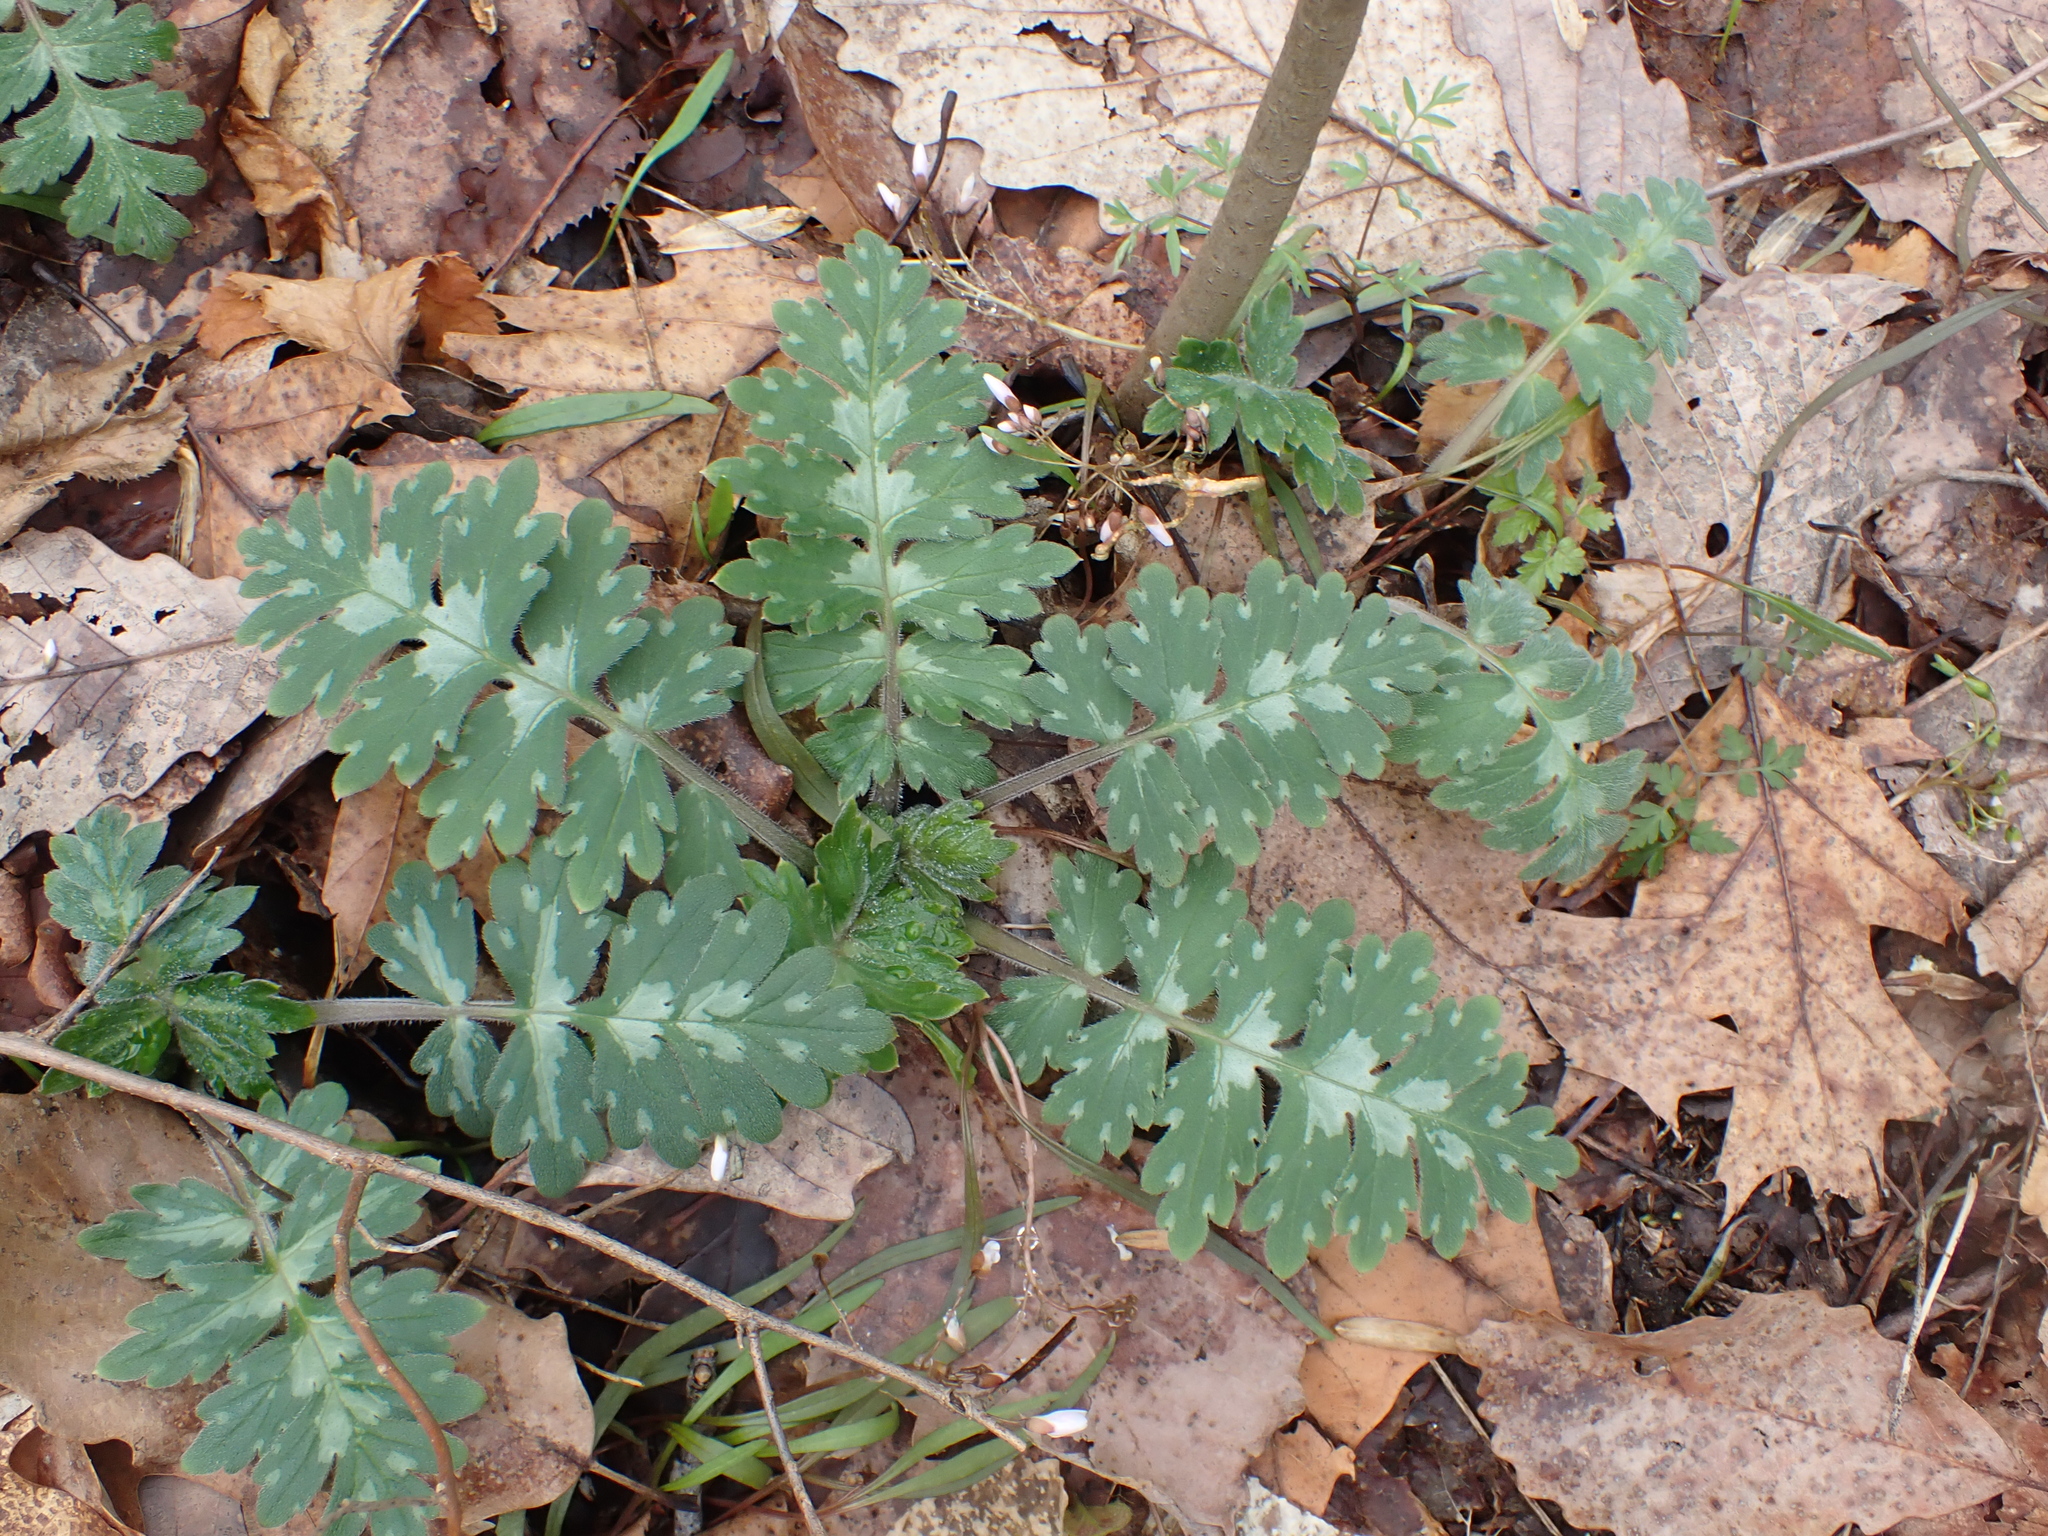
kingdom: Plantae
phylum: Tracheophyta
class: Magnoliopsida
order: Boraginales
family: Hydrophyllaceae
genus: Hydrophyllum
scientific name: Hydrophyllum macrophyllum
